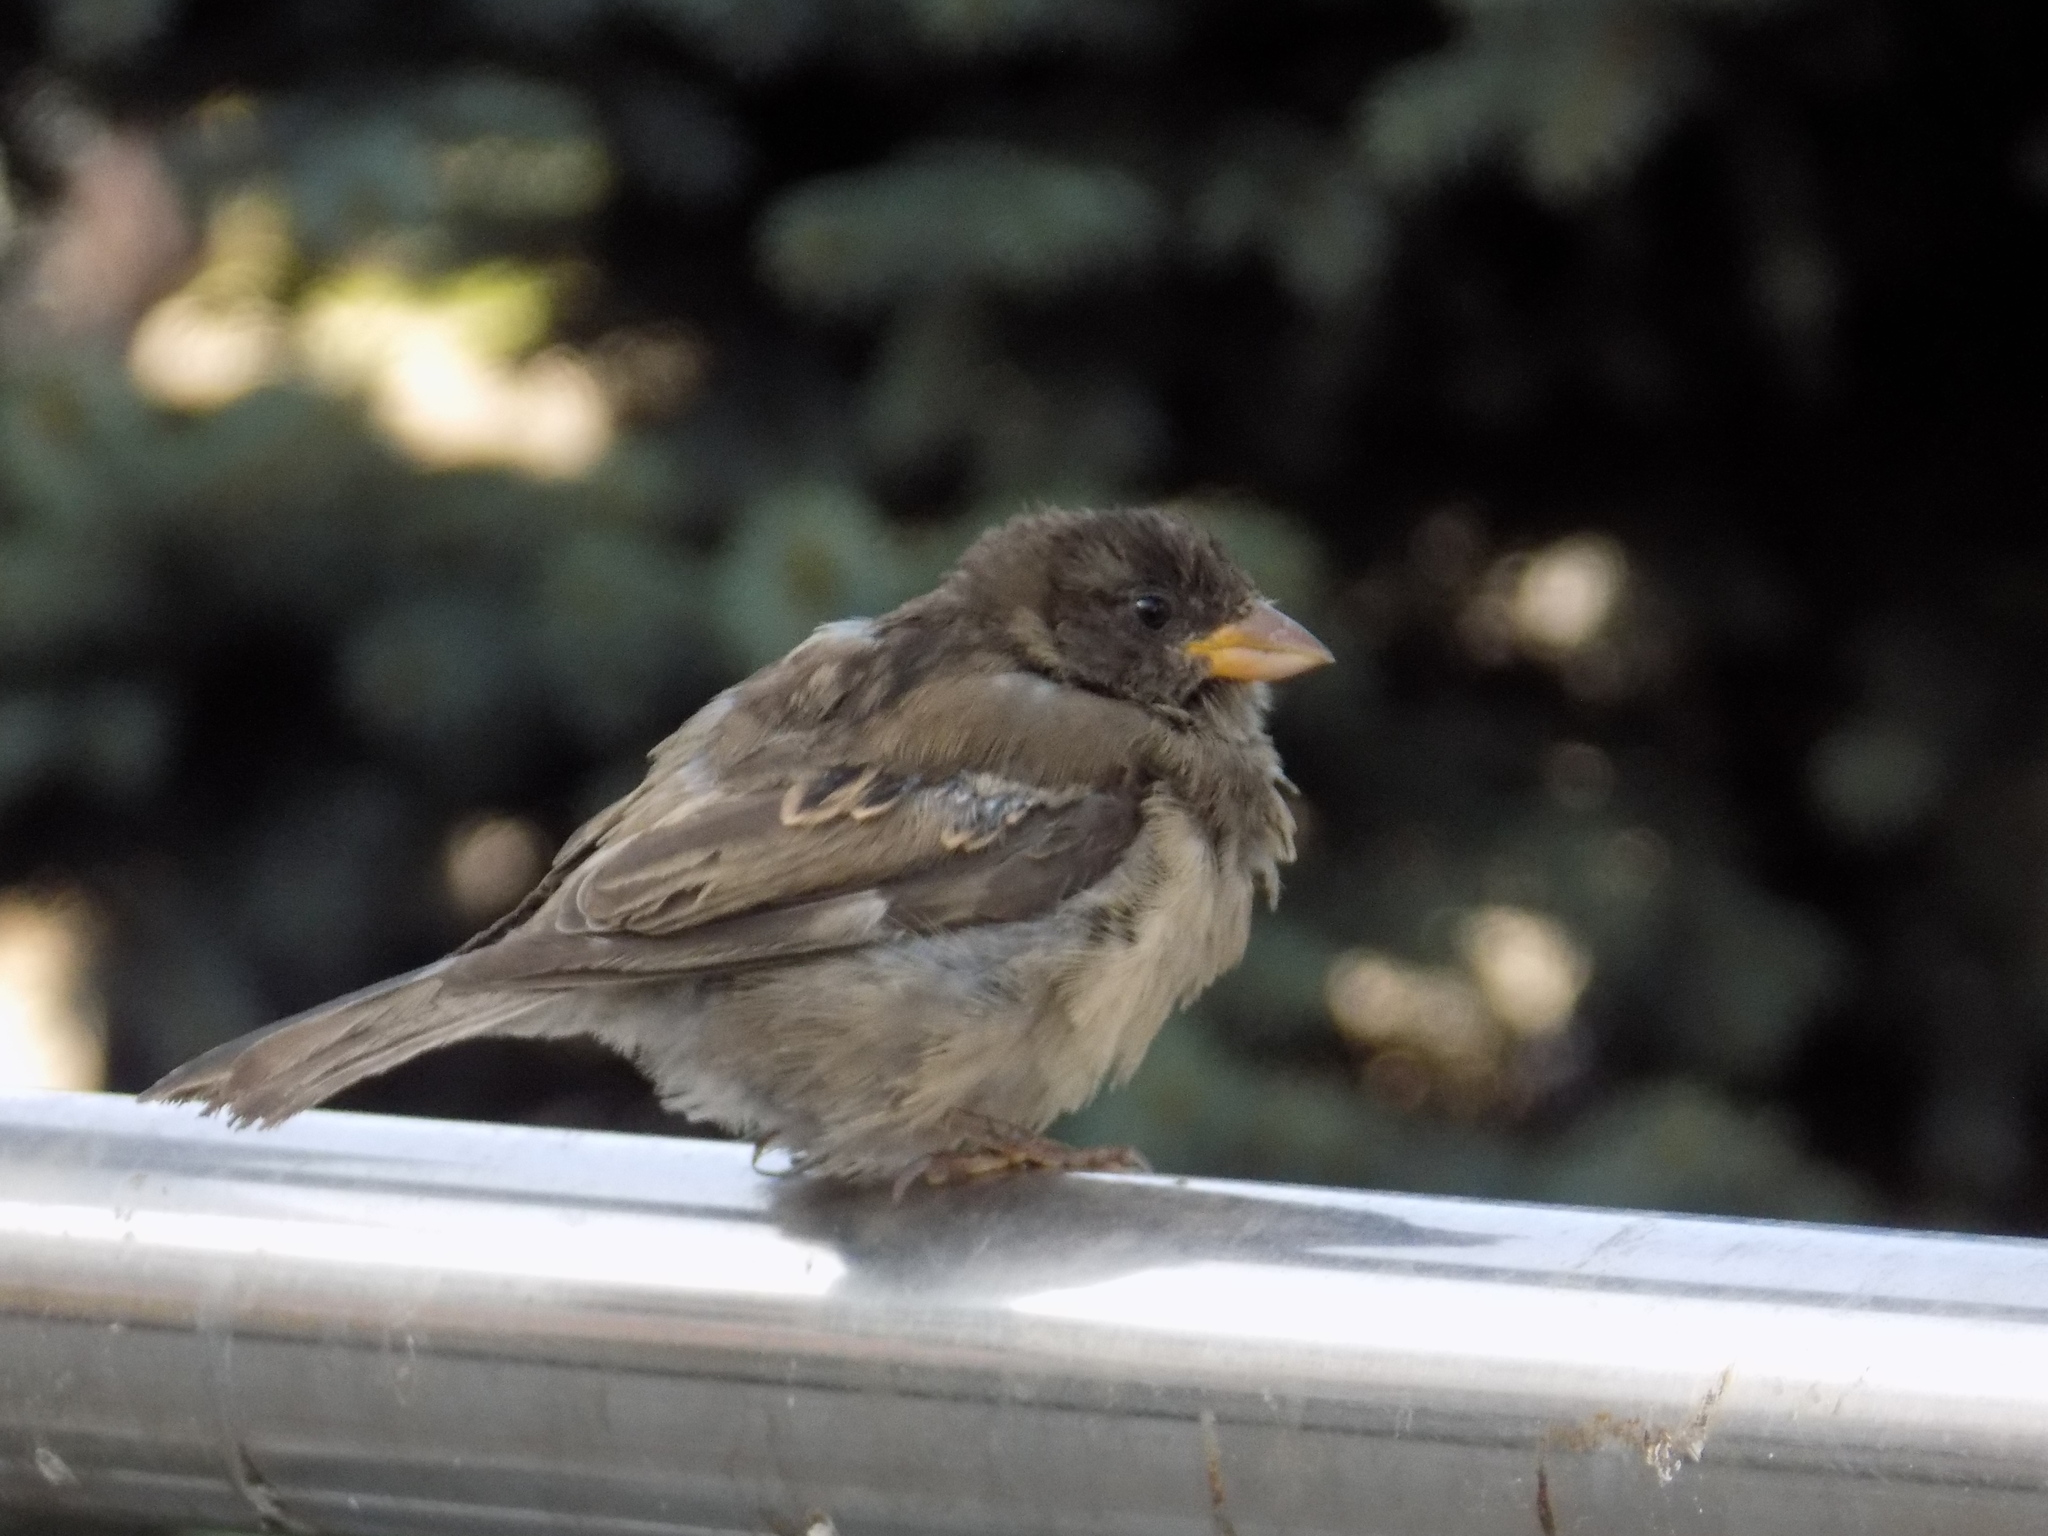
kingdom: Animalia
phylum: Chordata
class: Aves
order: Passeriformes
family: Passeridae
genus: Passer
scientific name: Passer domesticus
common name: House sparrow
